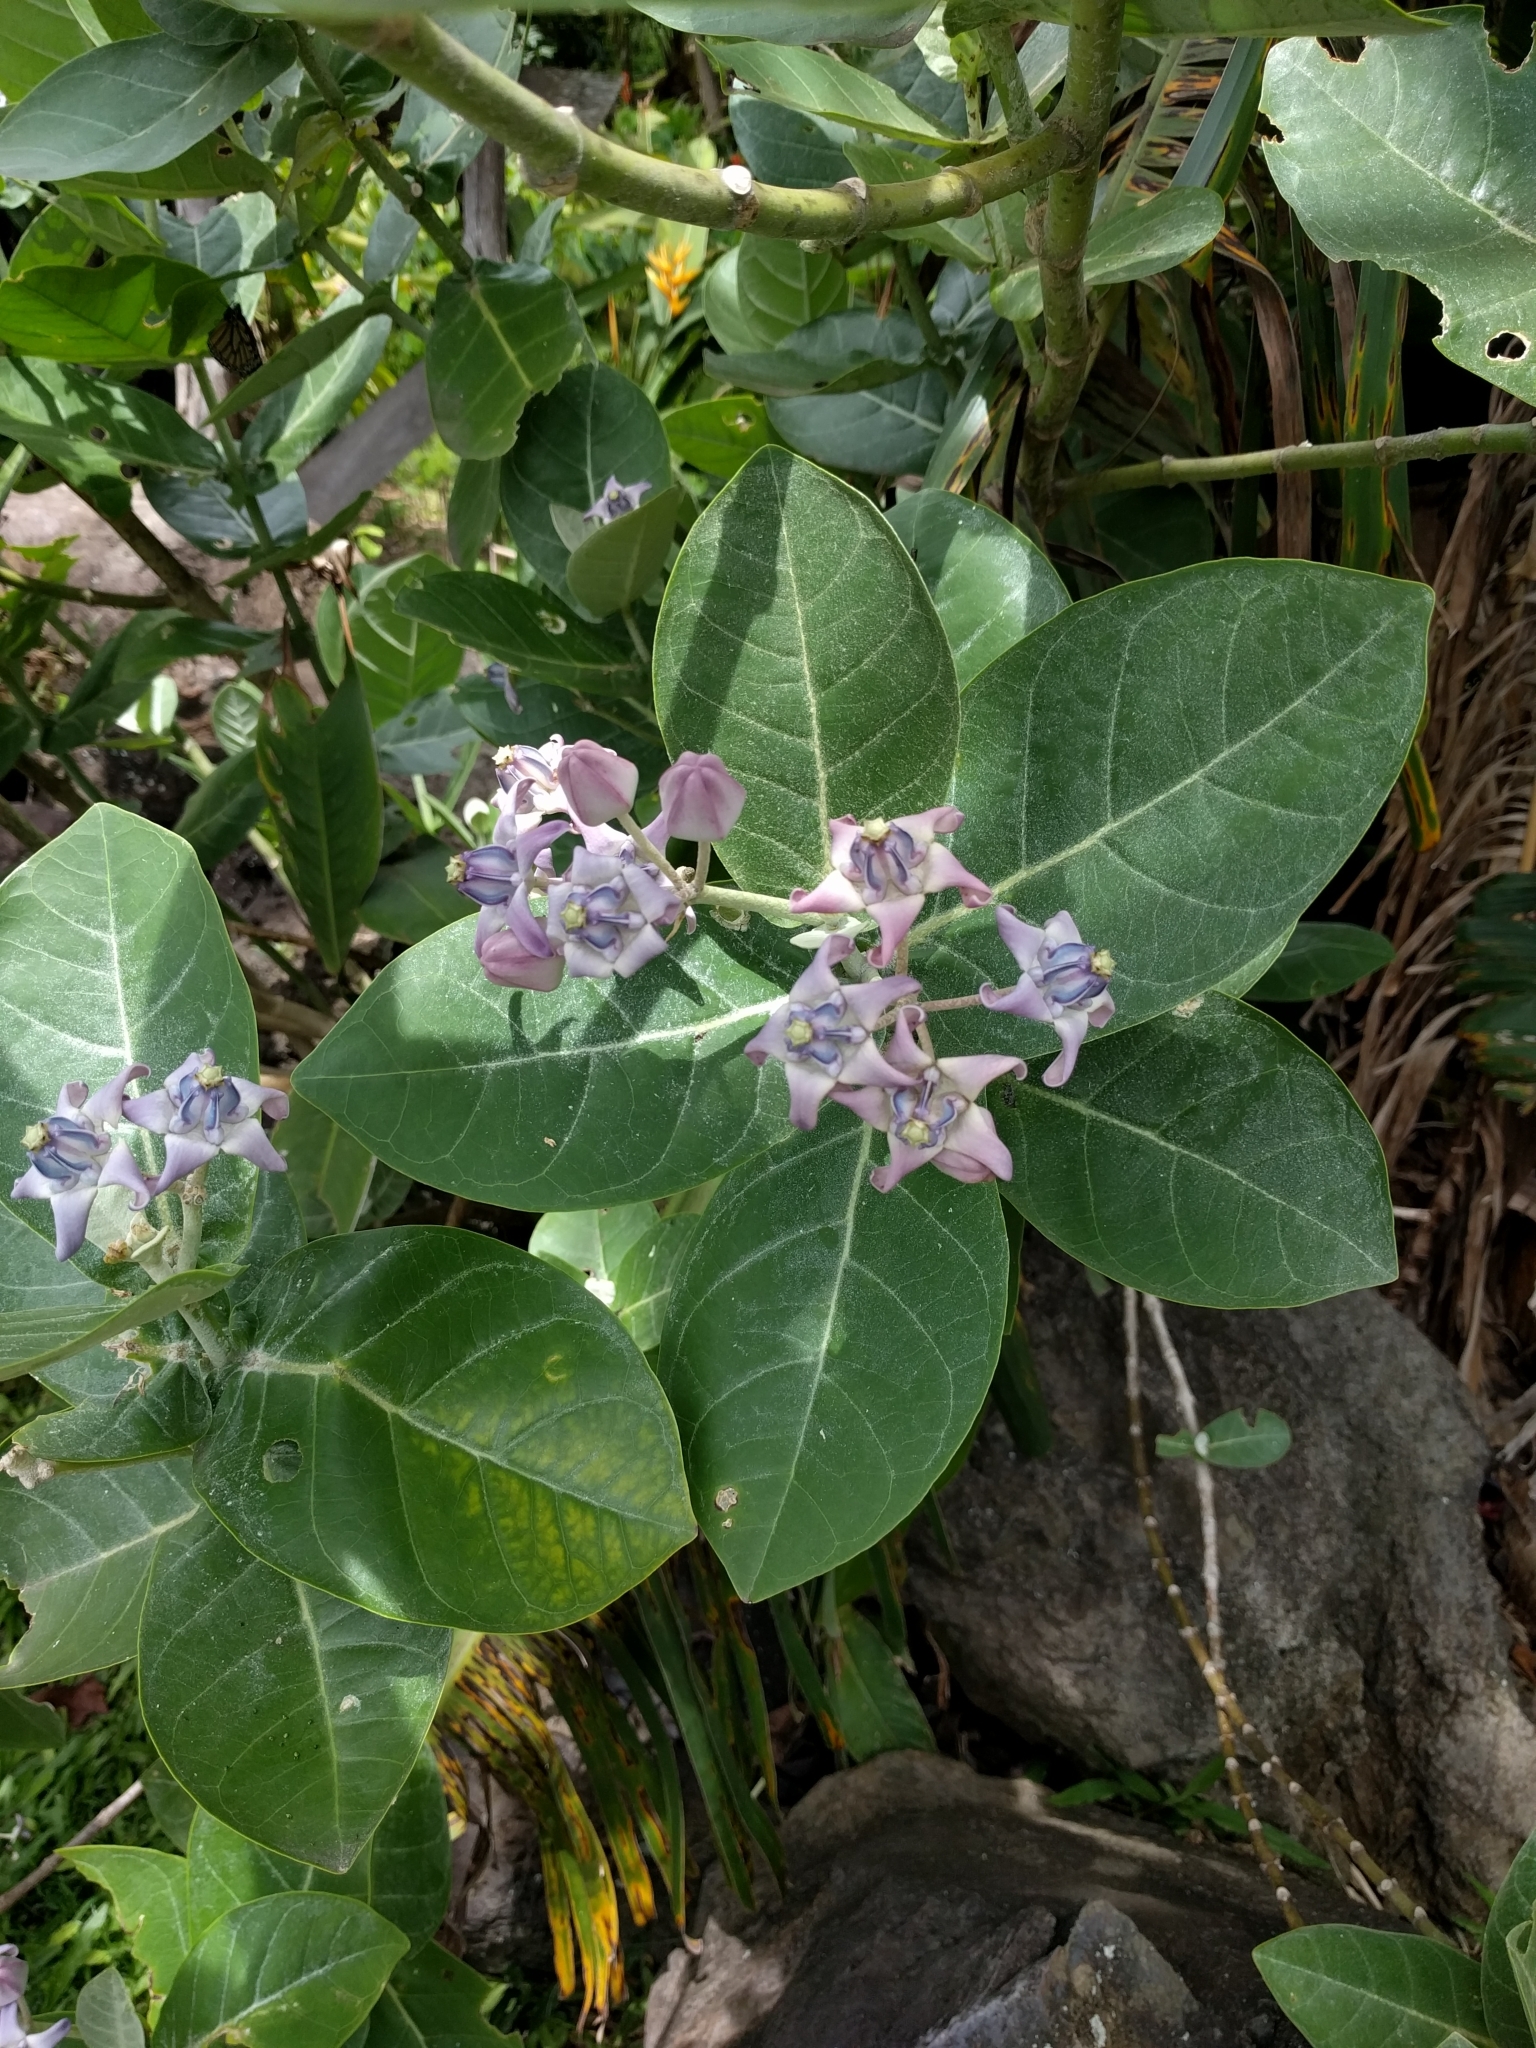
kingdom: Plantae
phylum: Tracheophyta
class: Magnoliopsida
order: Gentianales
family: Apocynaceae
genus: Calotropis
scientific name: Calotropis gigantea
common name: Crown flower
